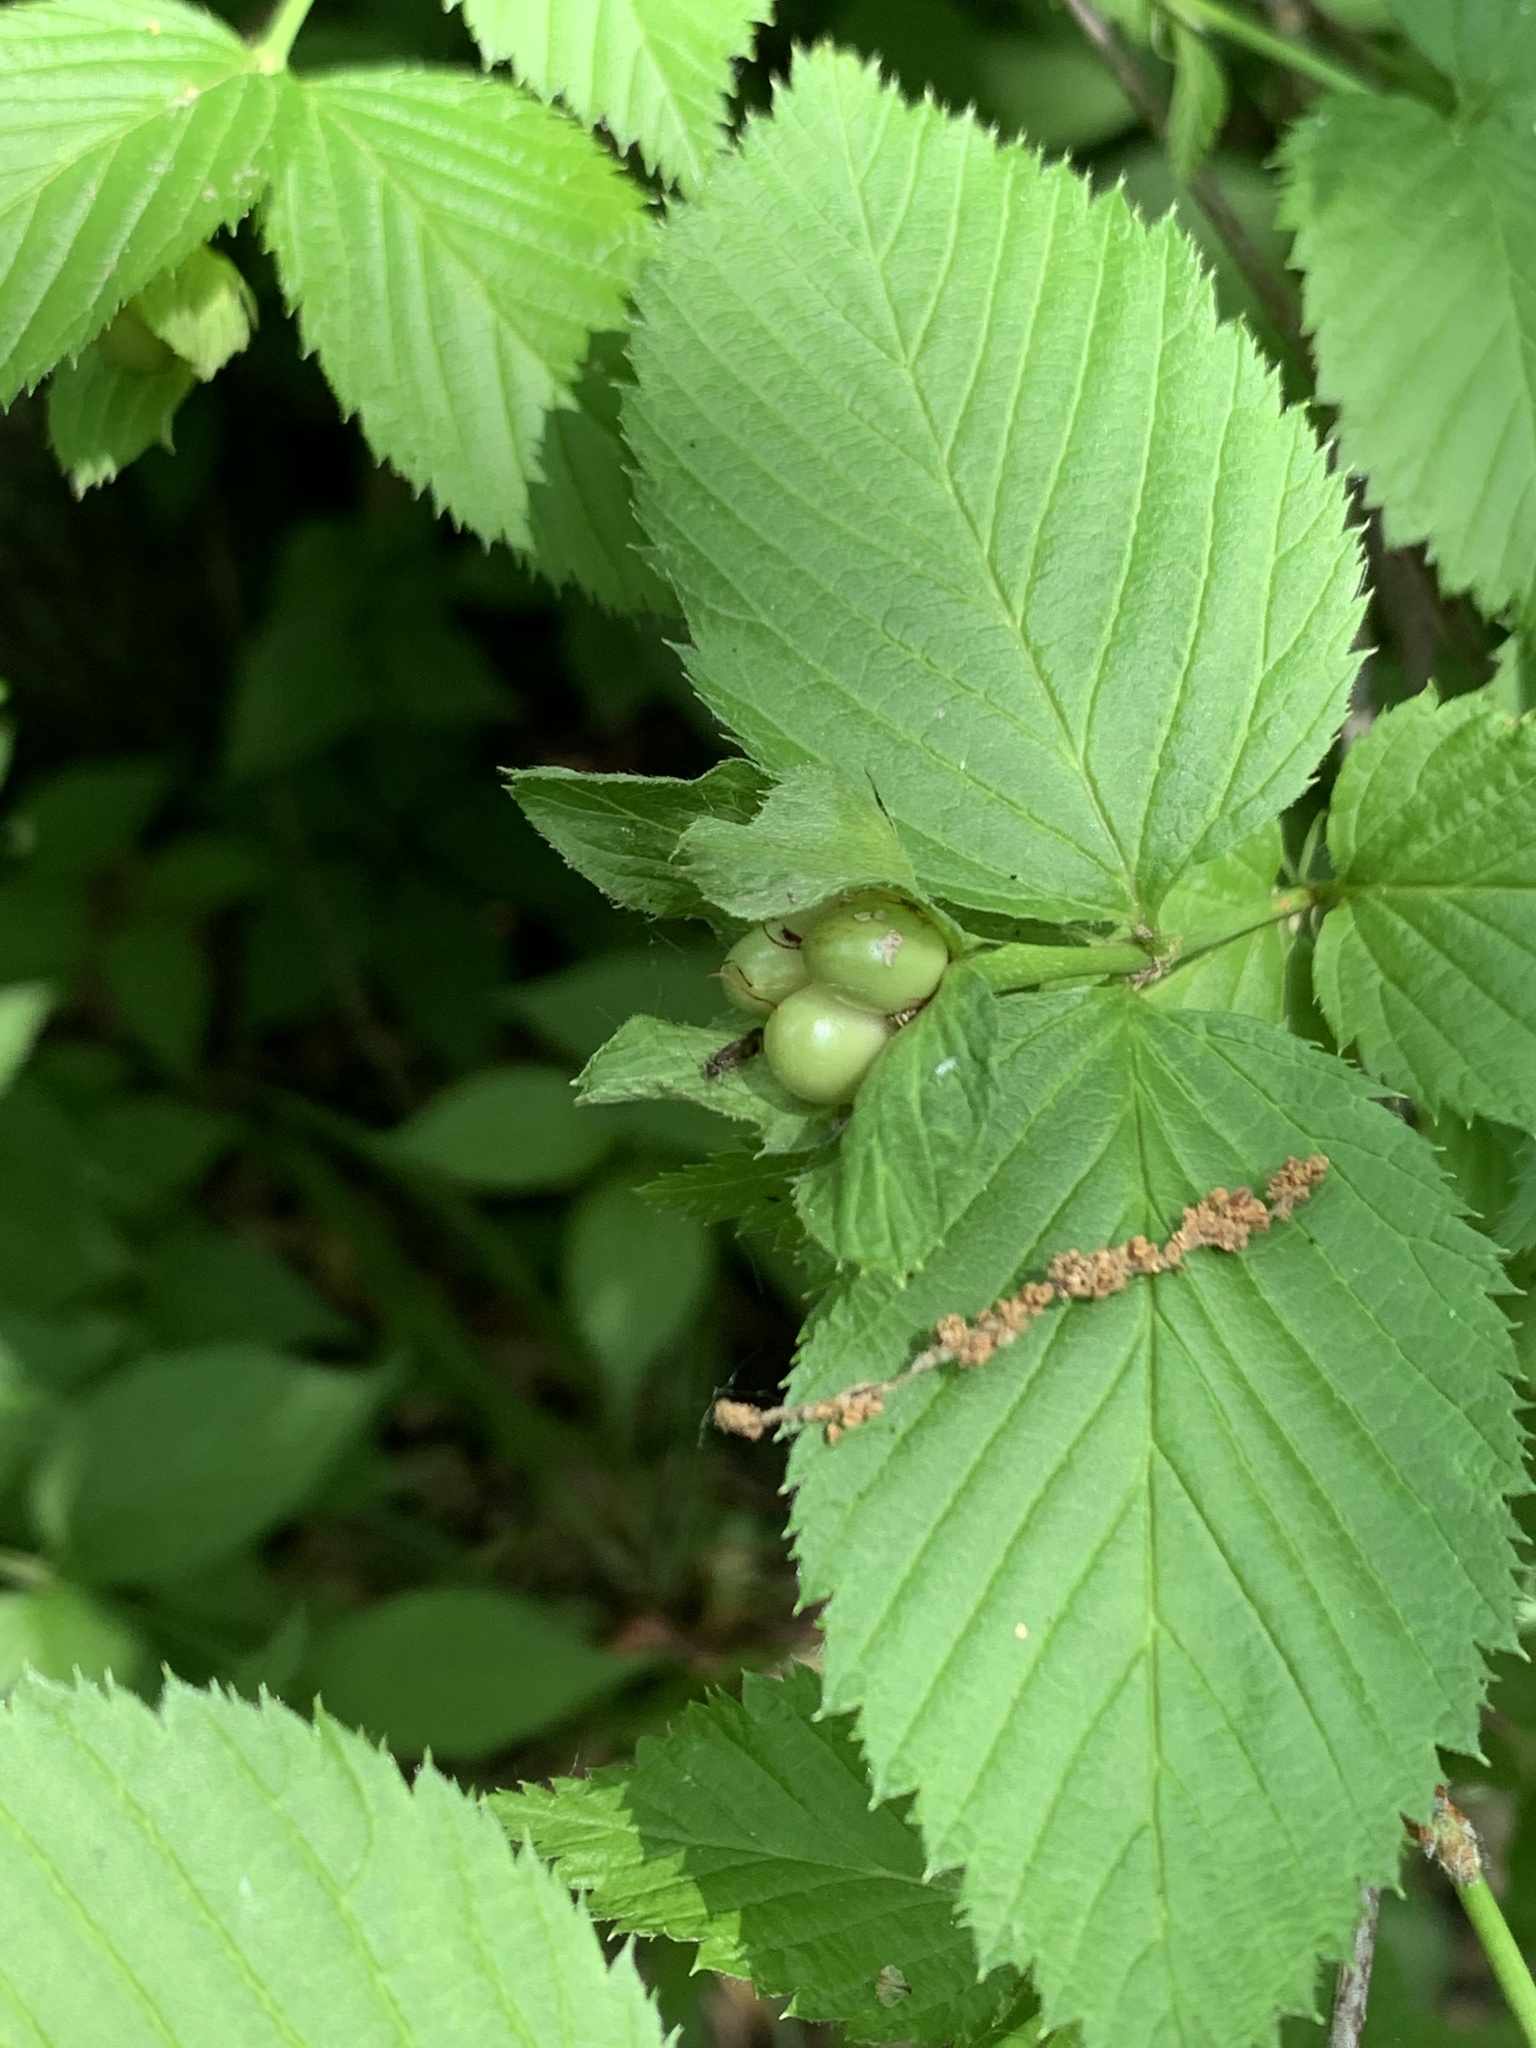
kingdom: Plantae
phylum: Tracheophyta
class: Magnoliopsida
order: Rosales
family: Rosaceae
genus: Rhodotypos
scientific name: Rhodotypos scandens
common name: Jetbead
